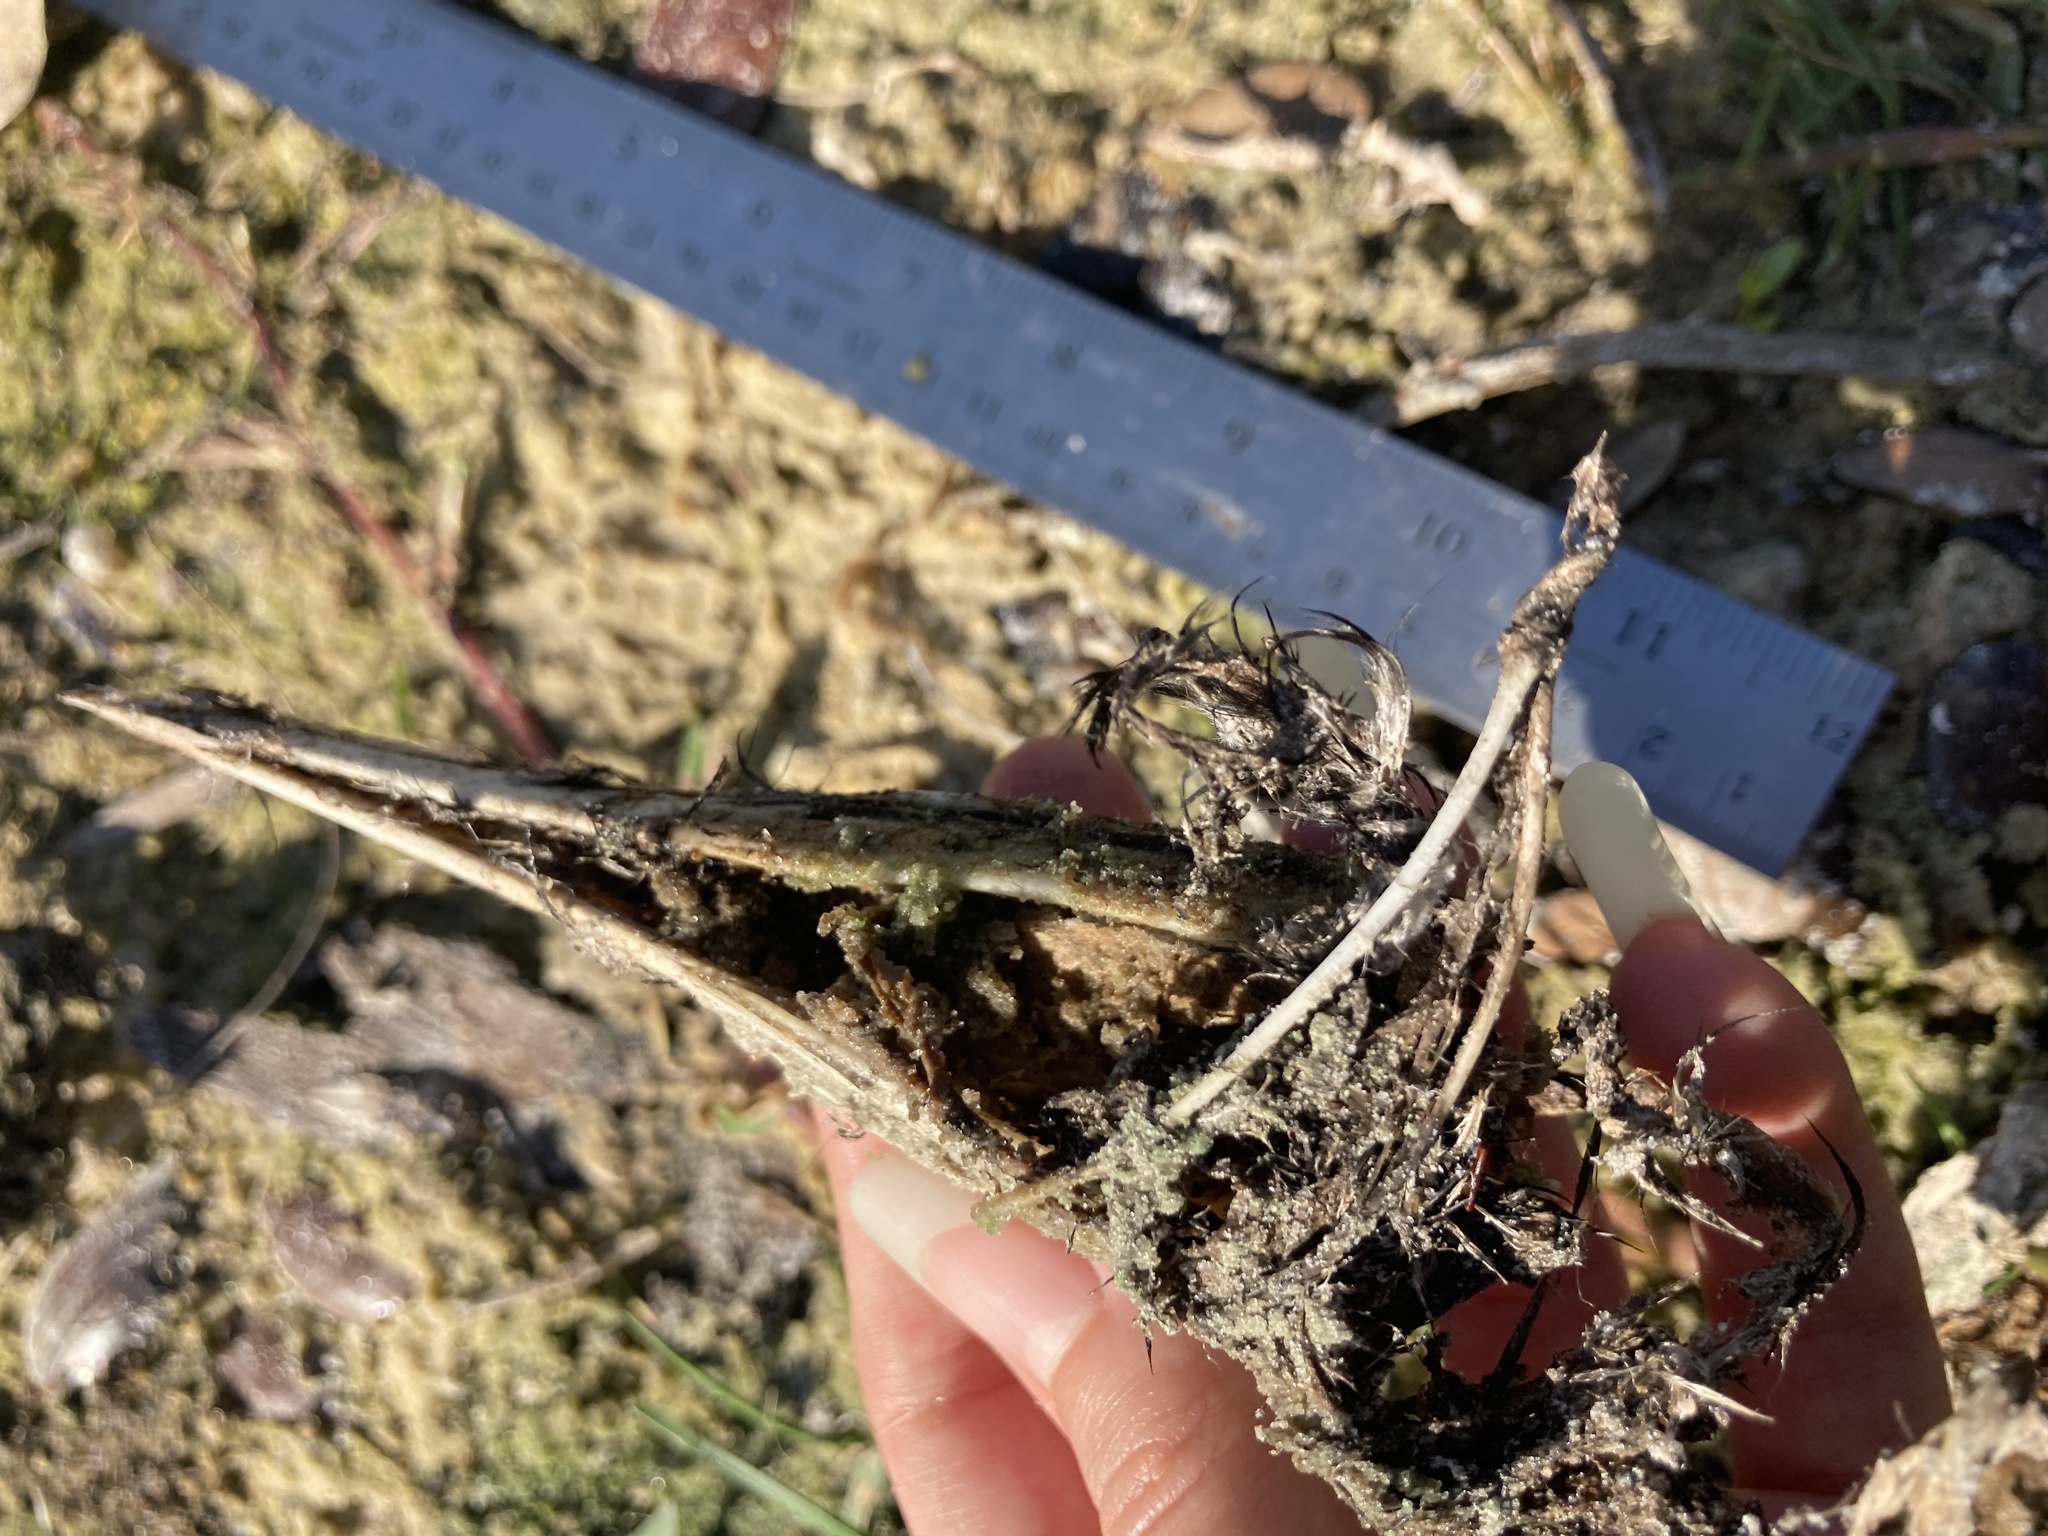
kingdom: Animalia
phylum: Chordata
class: Aves
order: Suliformes
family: Phalacrocoracidae
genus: Phalacrocorax
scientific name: Phalacrocorax auritus
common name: Double-crested cormorant
